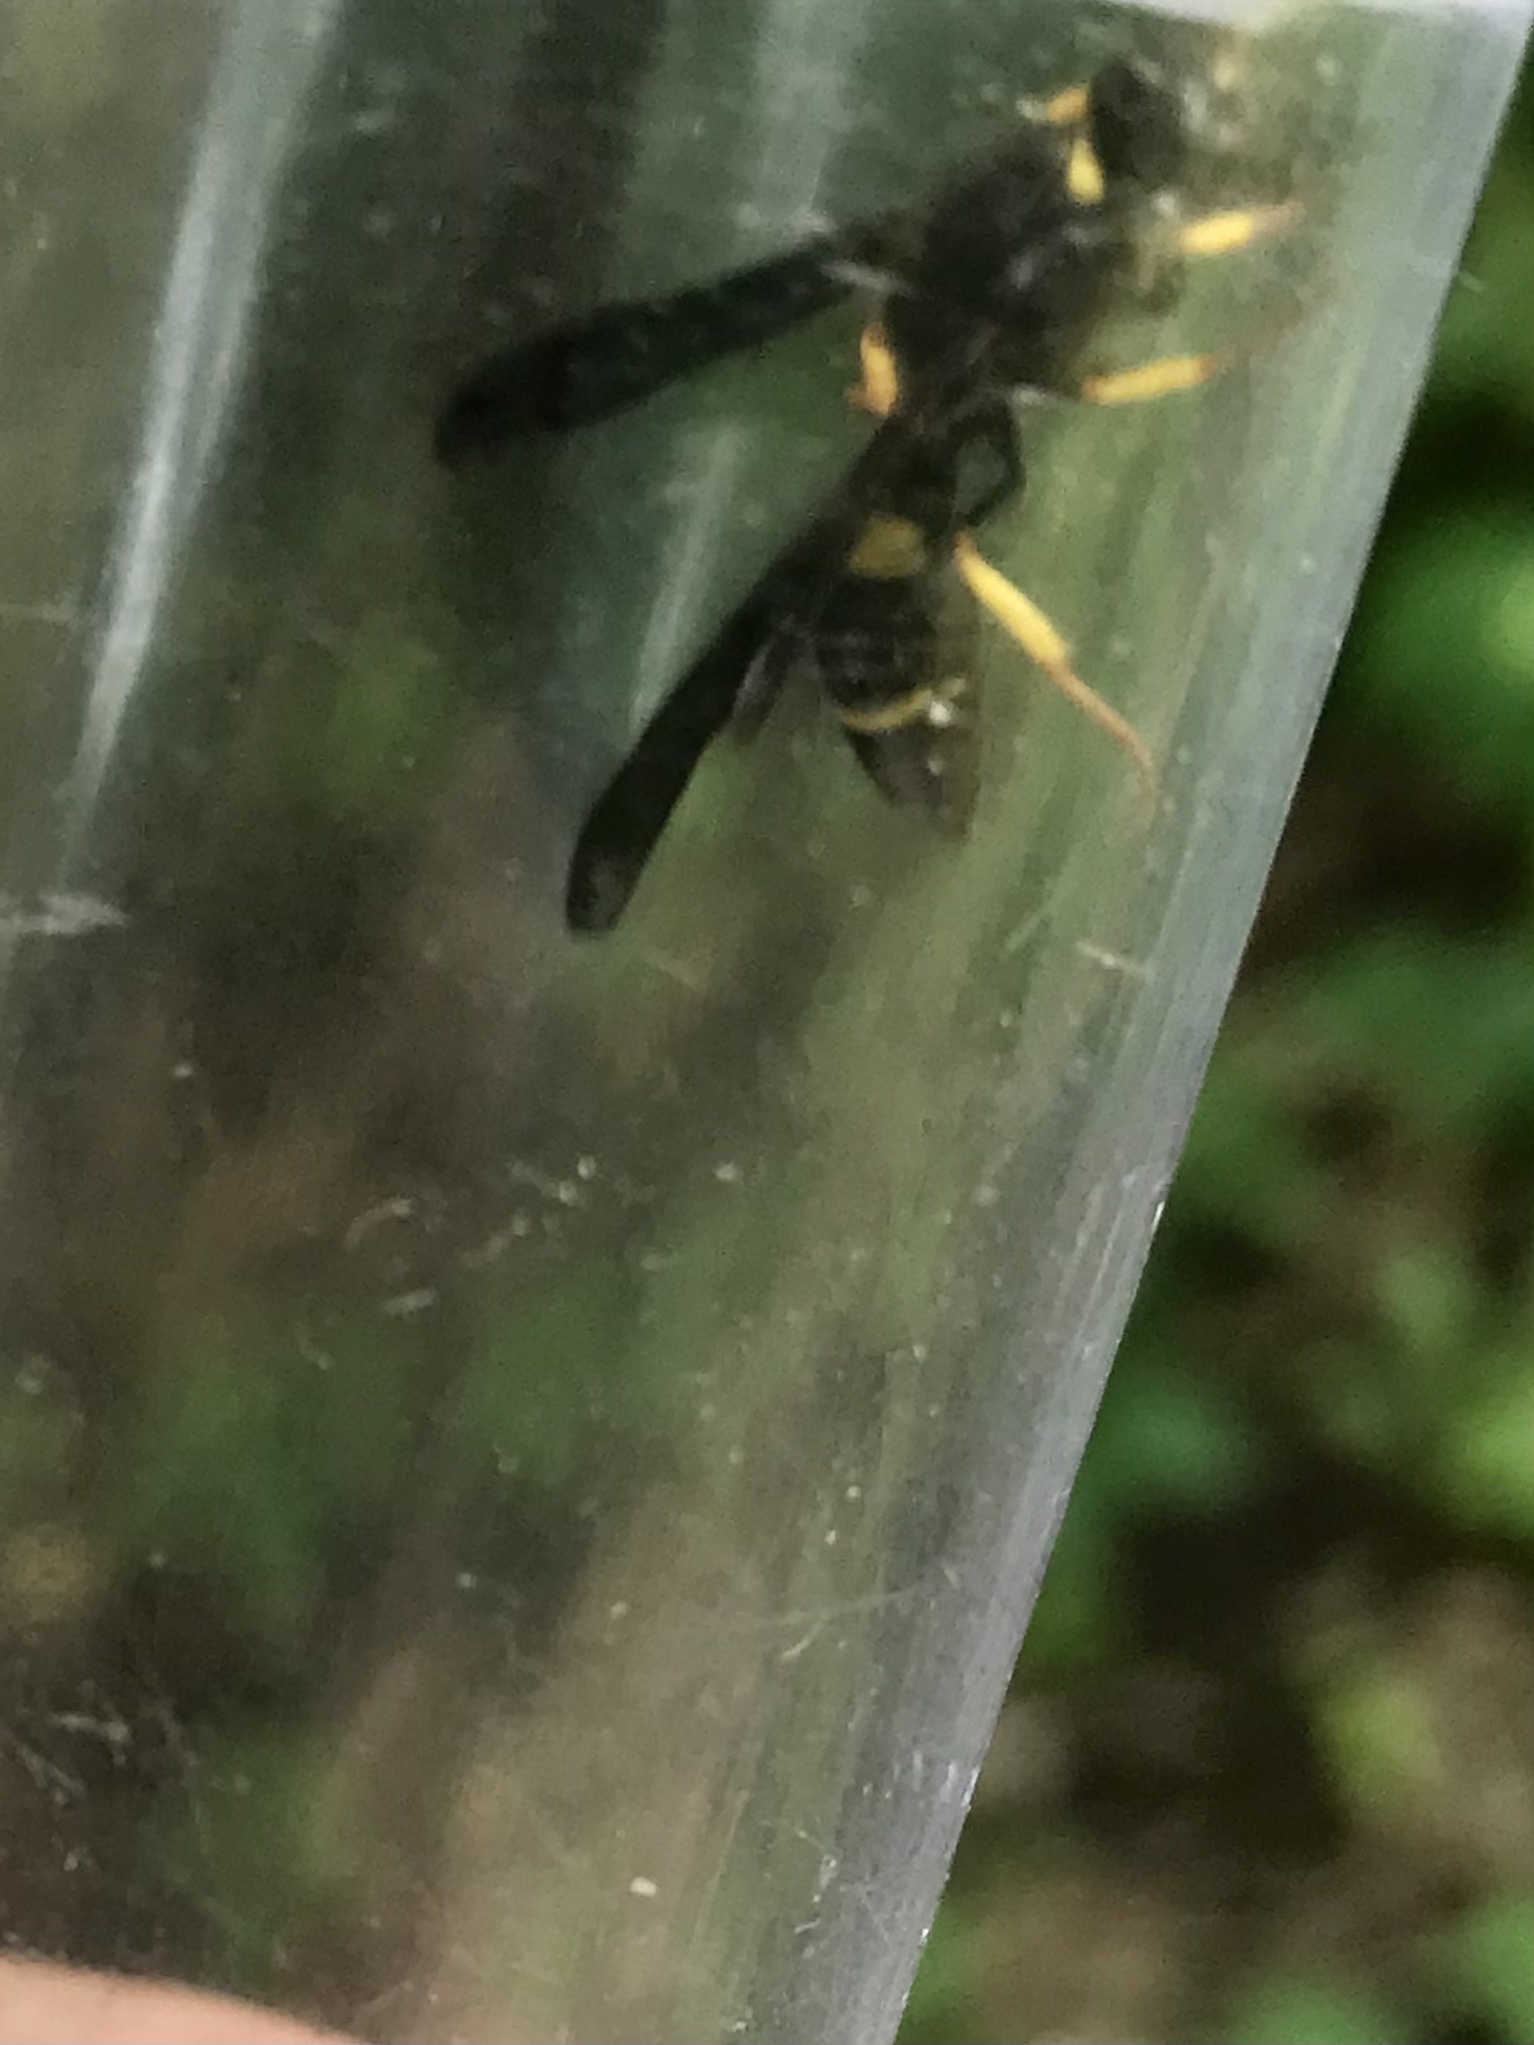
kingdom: Animalia
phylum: Arthropoda
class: Insecta
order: Hymenoptera
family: Vespidae
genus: Ancistrocerus
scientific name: Ancistrocerus spinolae
